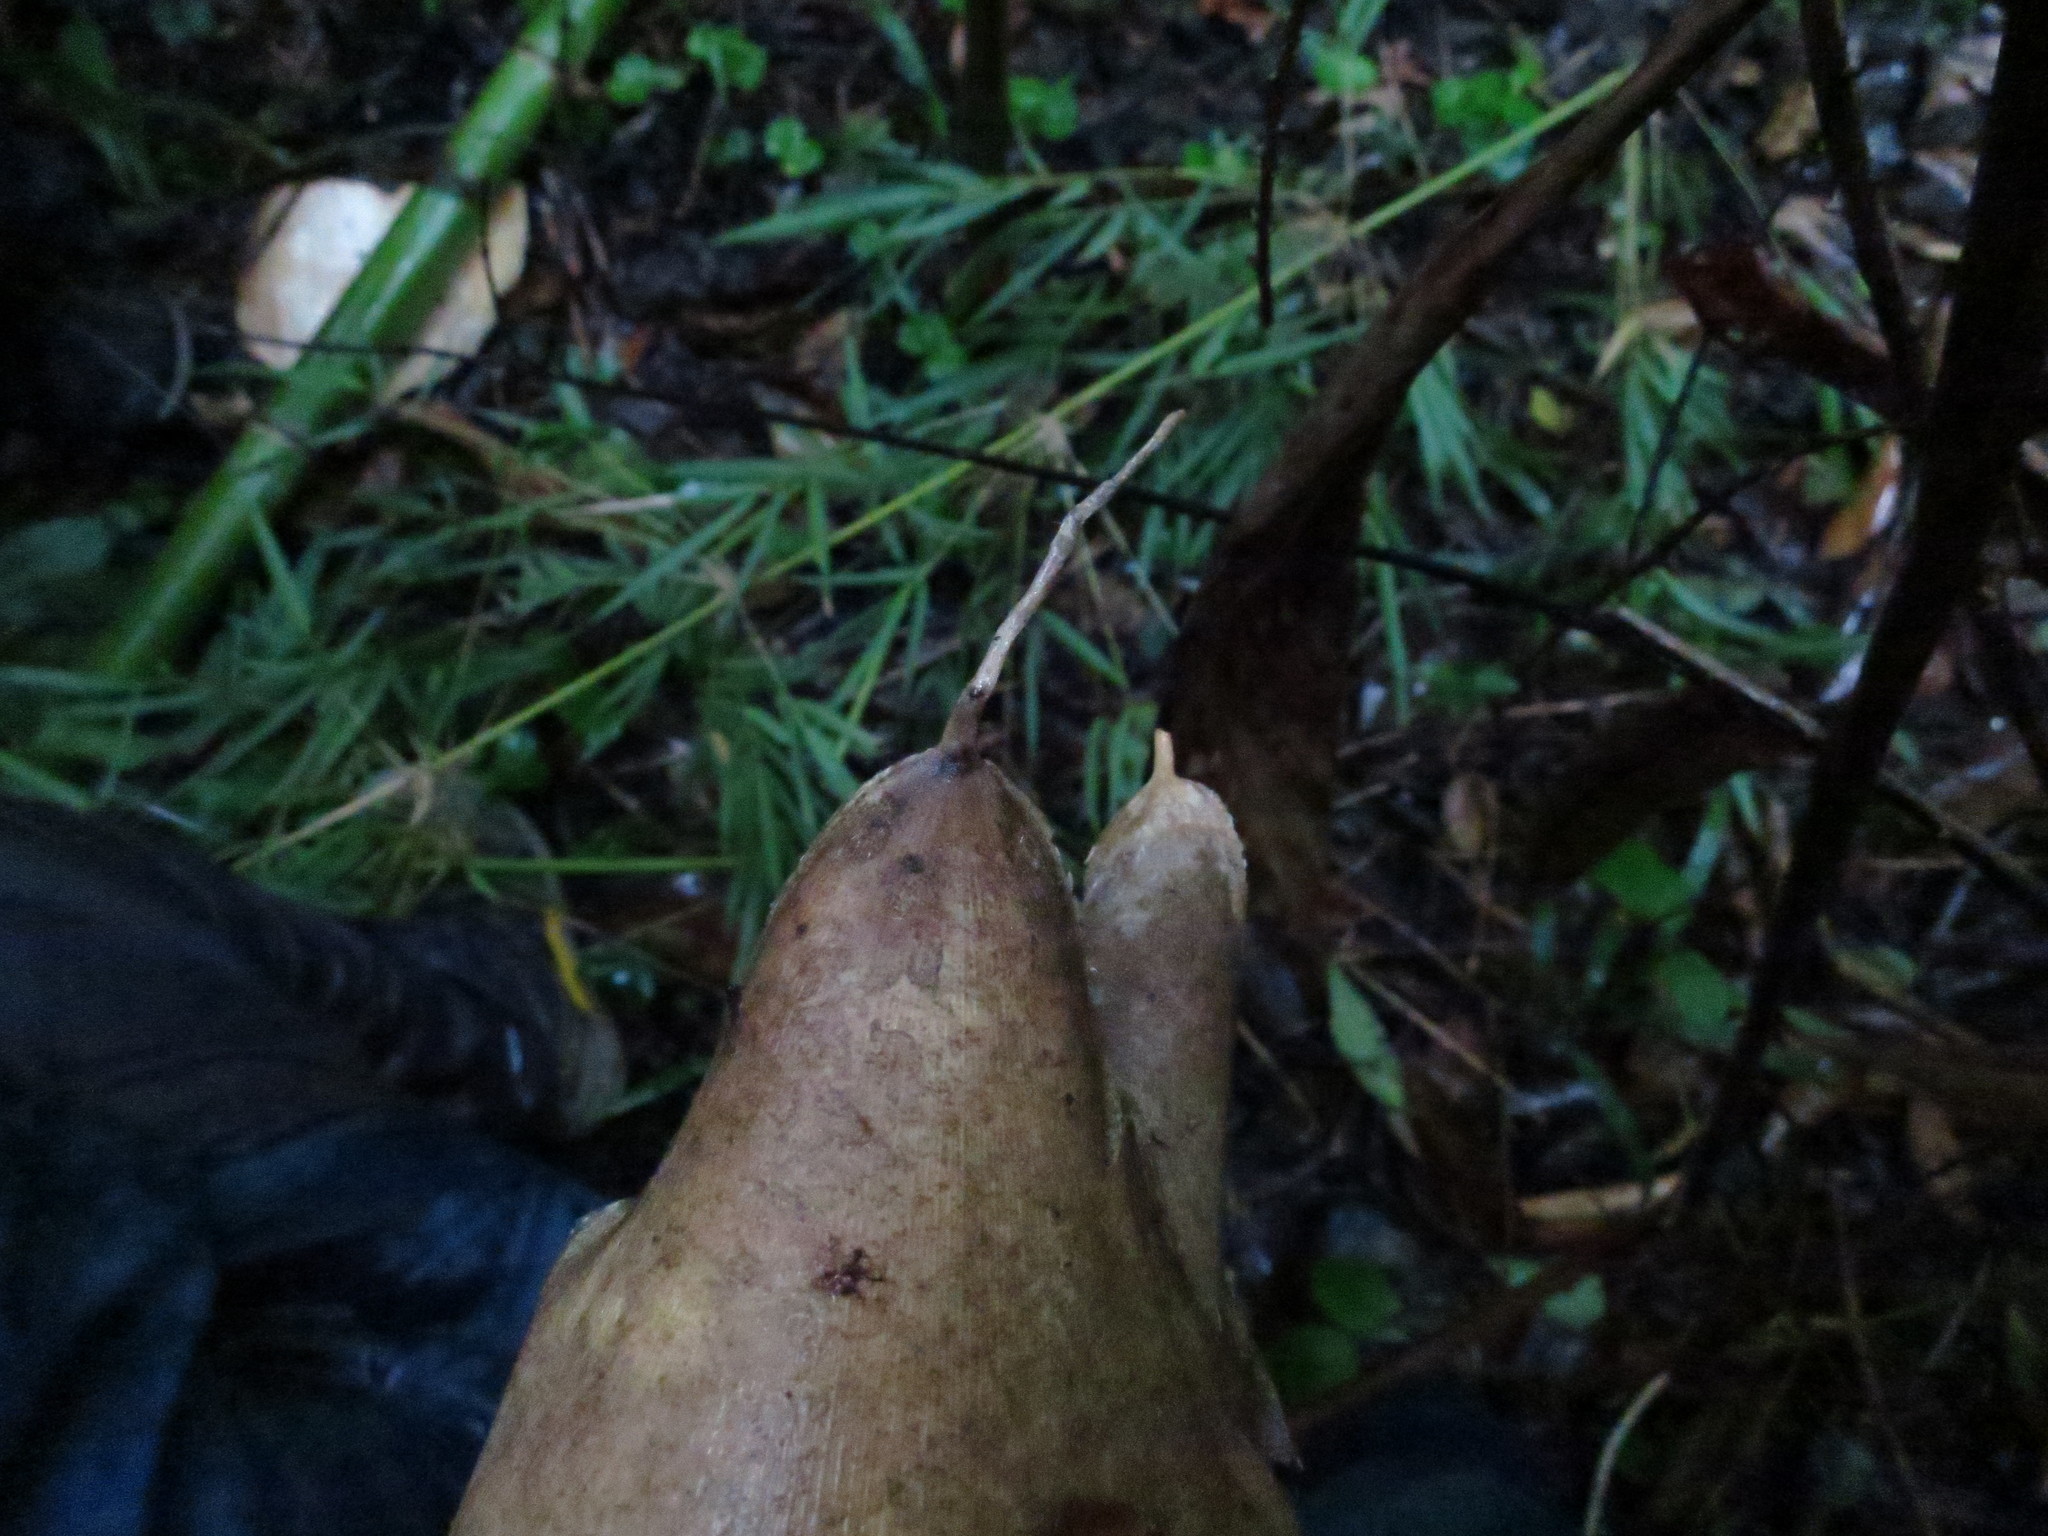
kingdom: Plantae
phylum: Tracheophyta
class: Liliopsida
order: Poales
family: Poaceae
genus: Valiha
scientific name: Valiha diffusa
